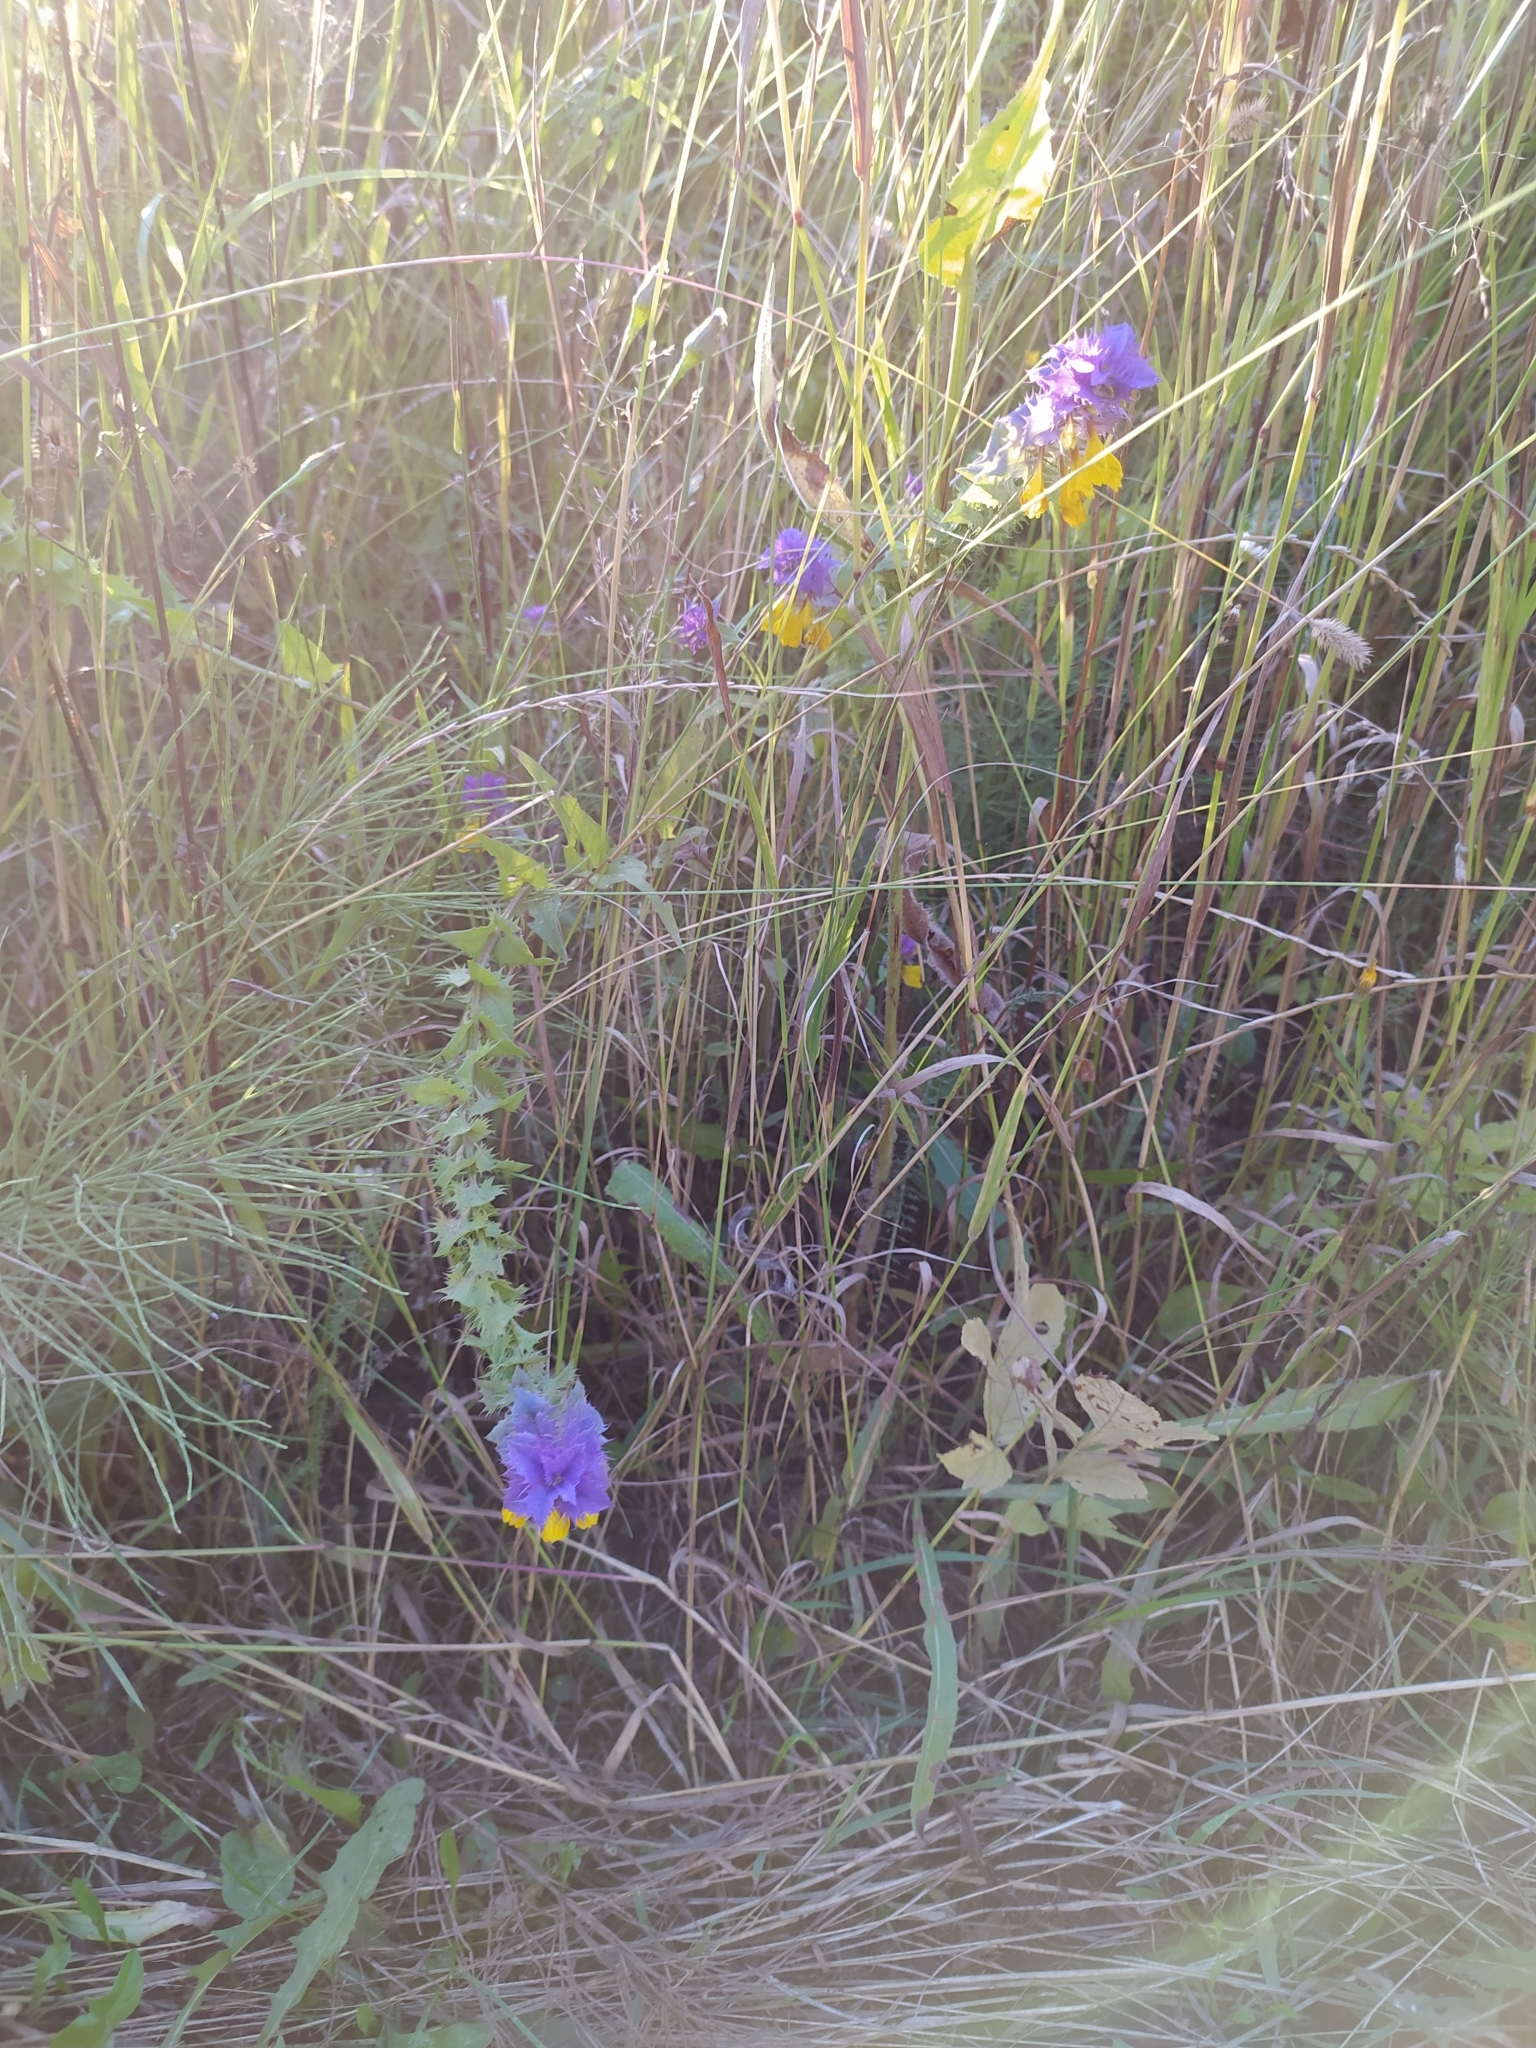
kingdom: Plantae
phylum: Tracheophyta
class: Magnoliopsida
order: Lamiales
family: Orobanchaceae
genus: Melampyrum
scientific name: Melampyrum nemorosum
